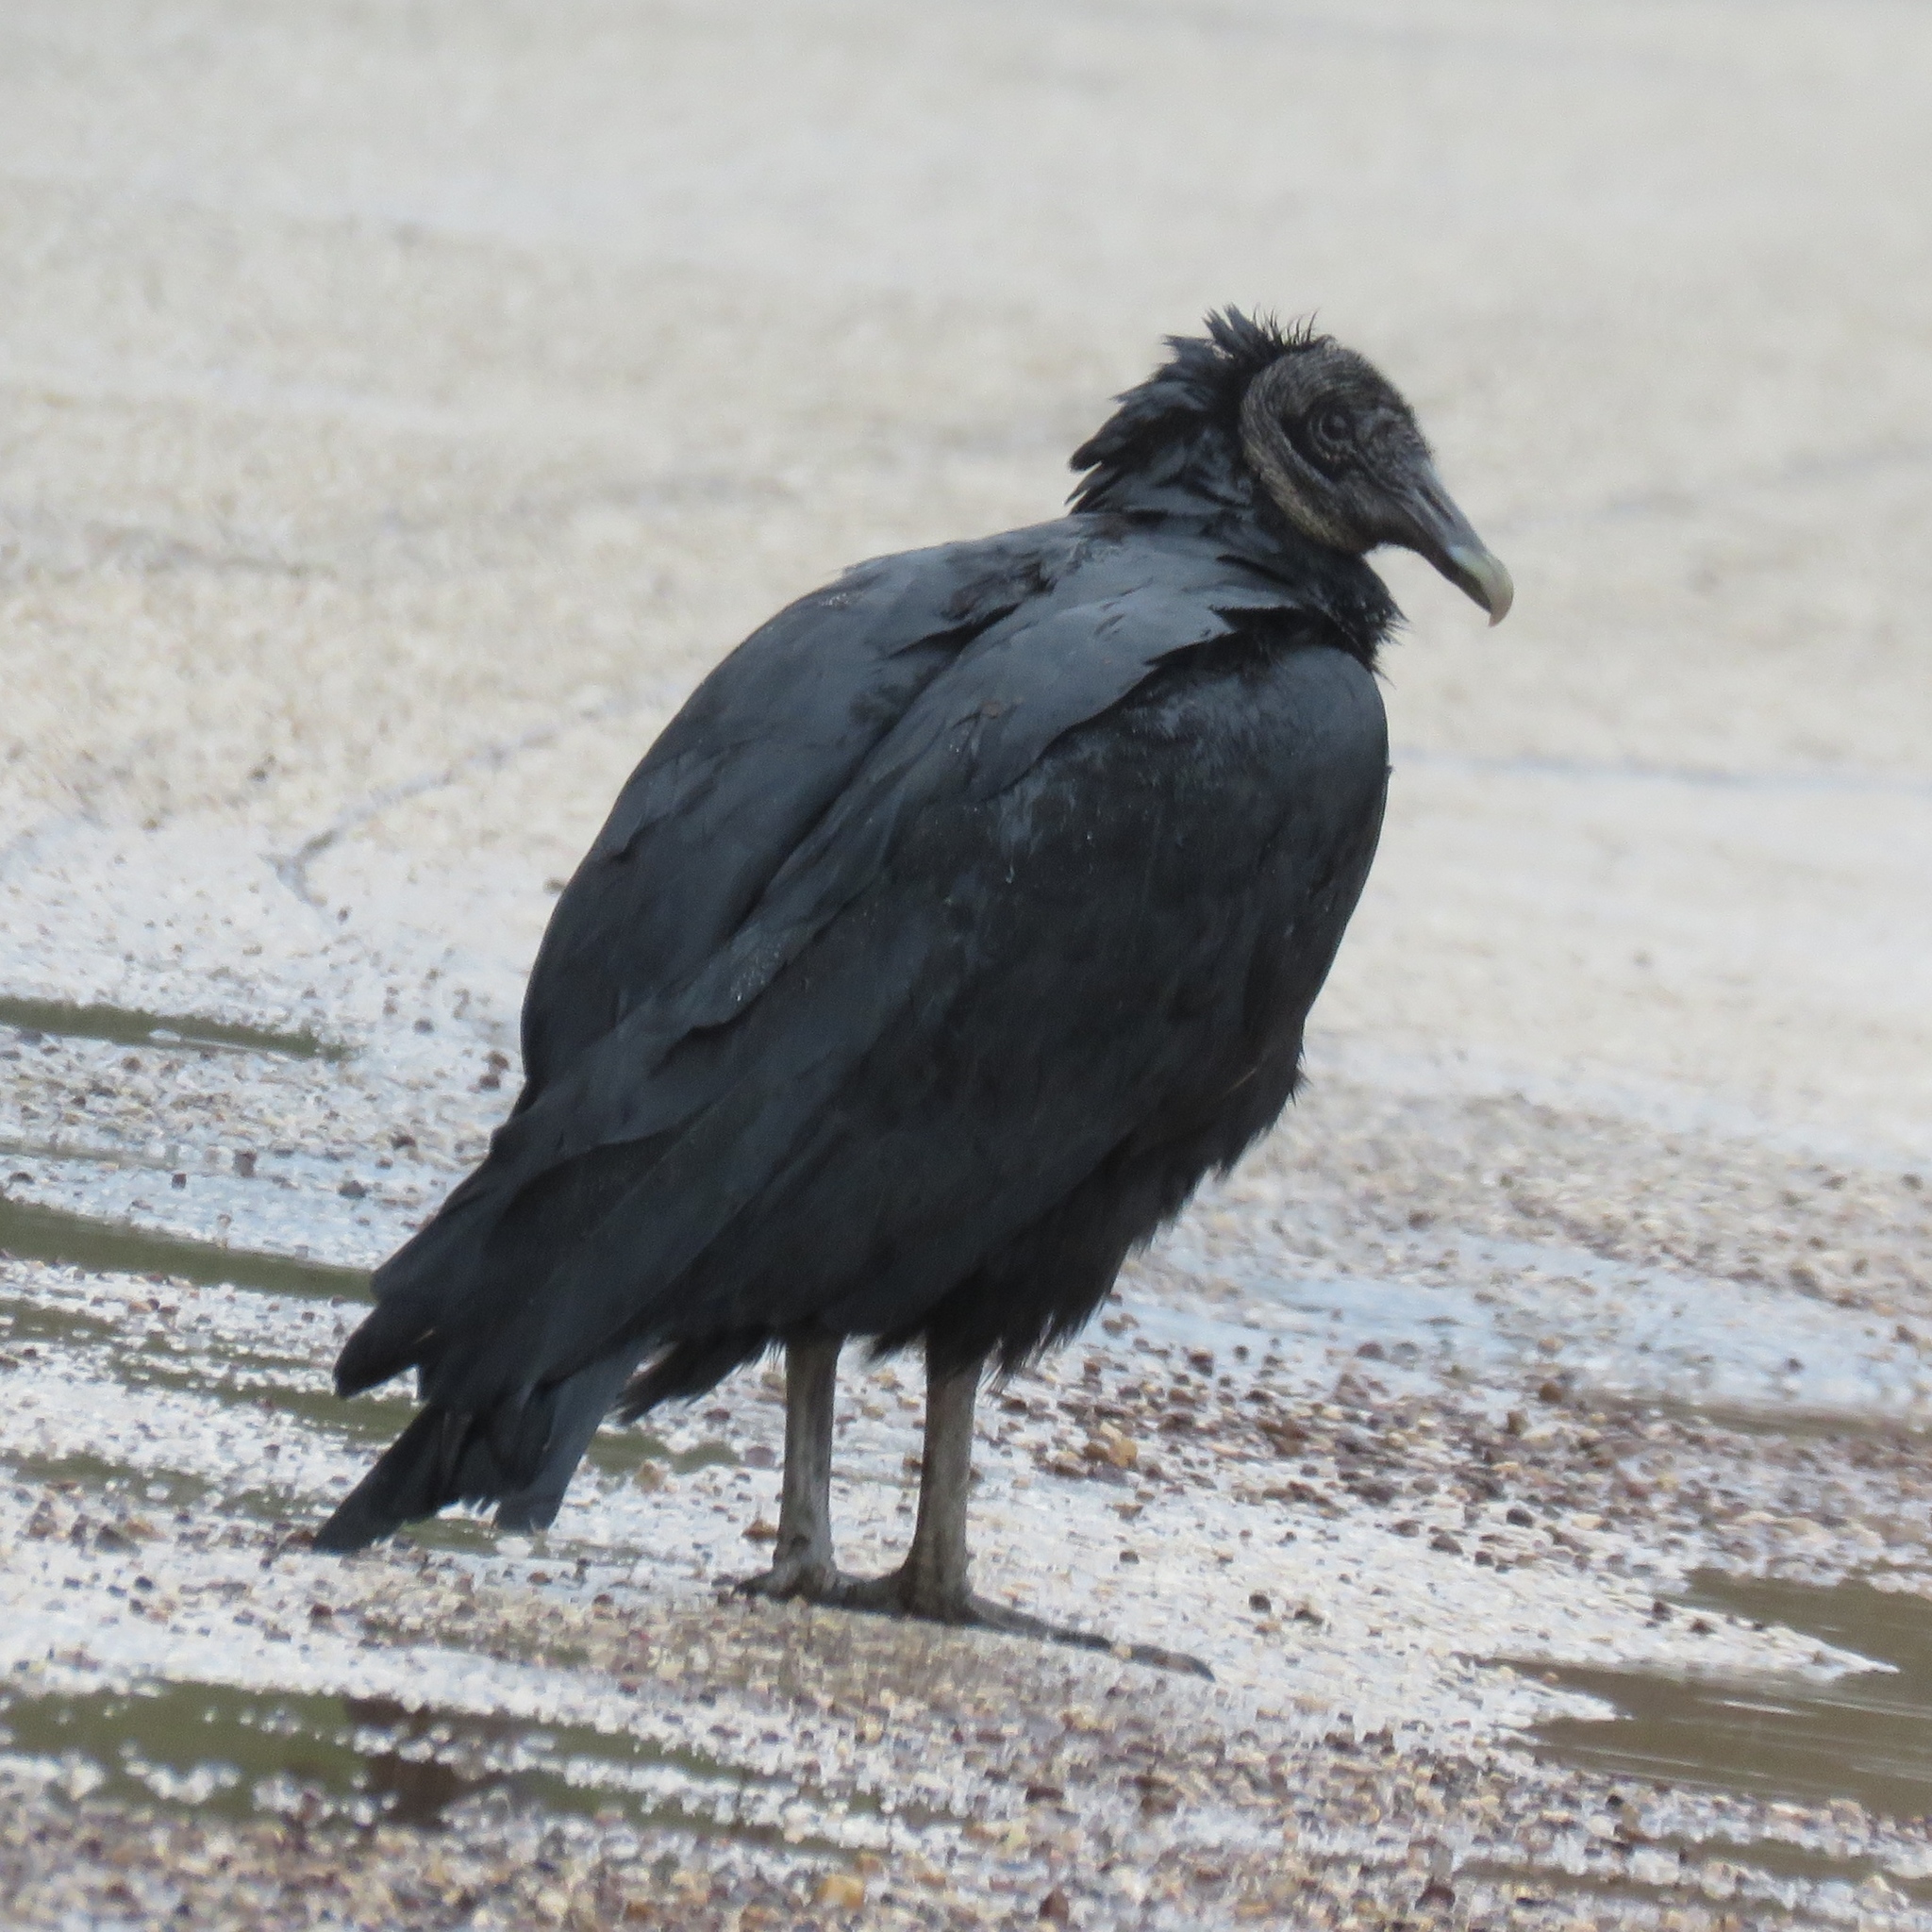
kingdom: Animalia
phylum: Chordata
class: Aves
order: Accipitriformes
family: Cathartidae
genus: Coragyps
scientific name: Coragyps atratus
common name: Black vulture
